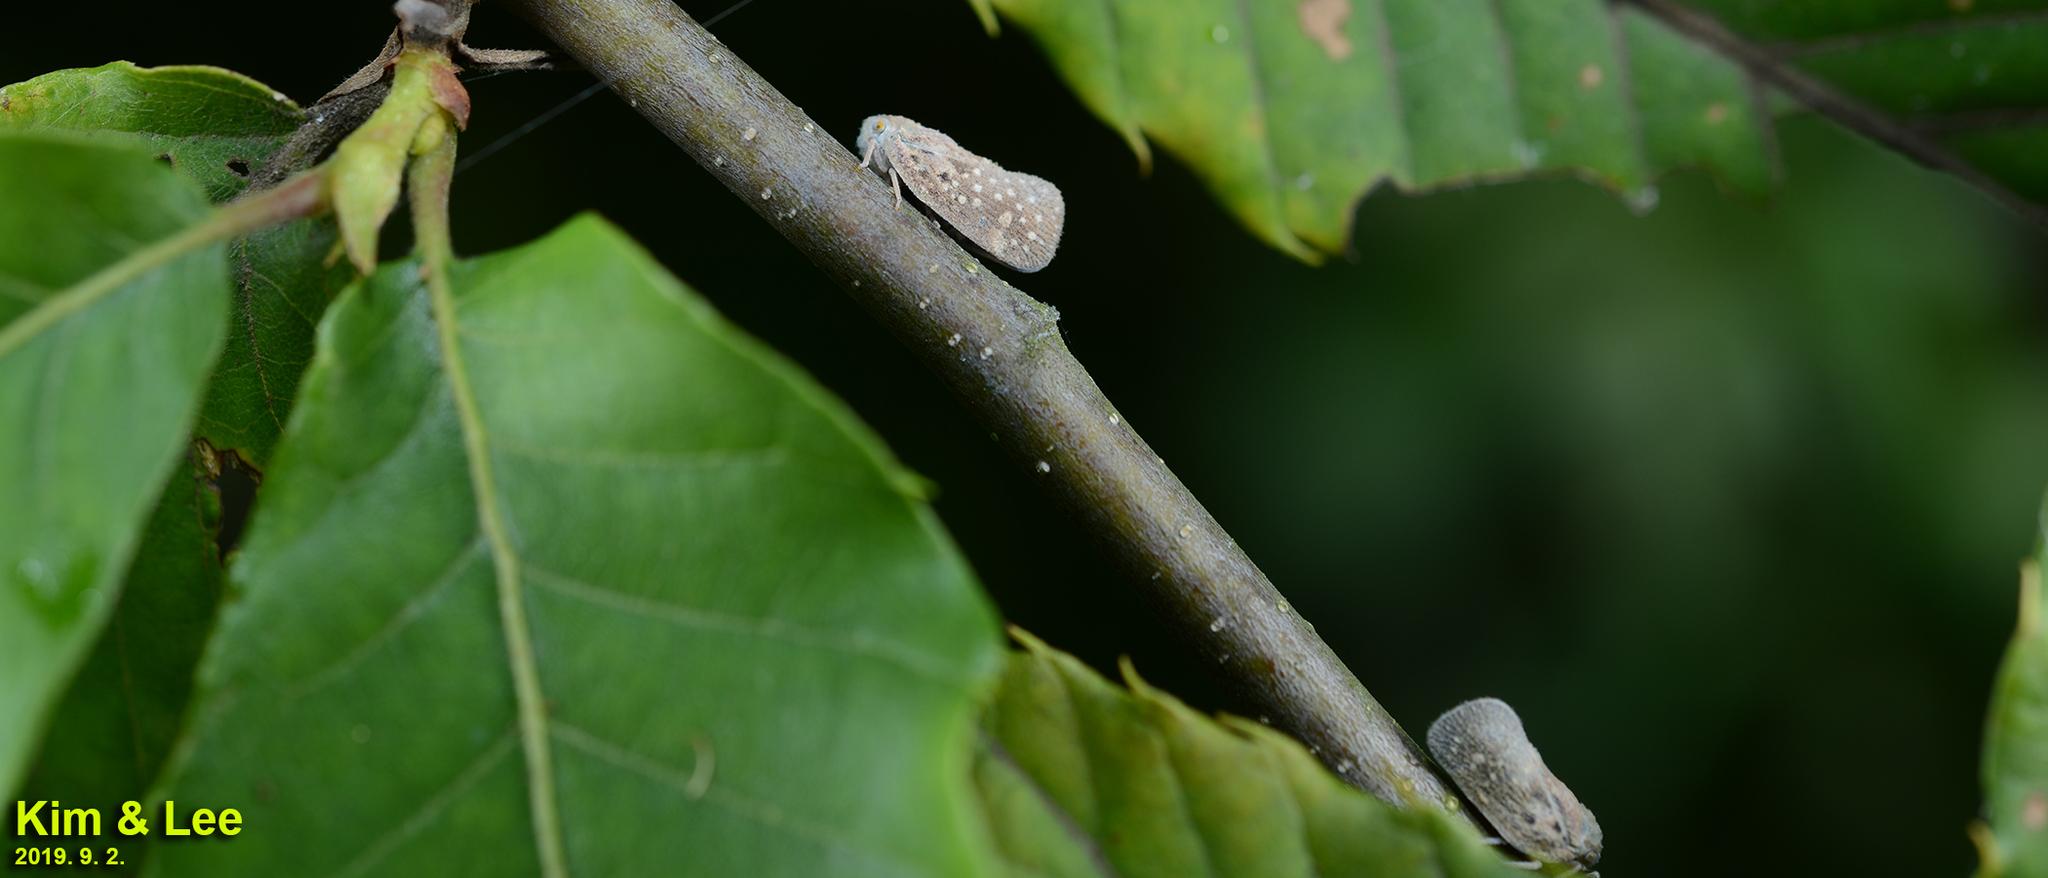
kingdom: Animalia
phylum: Arthropoda
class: Insecta
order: Hemiptera
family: Flatidae
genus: Metcalfa
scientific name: Metcalfa pruinosa
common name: Citrus flatid planthopper
